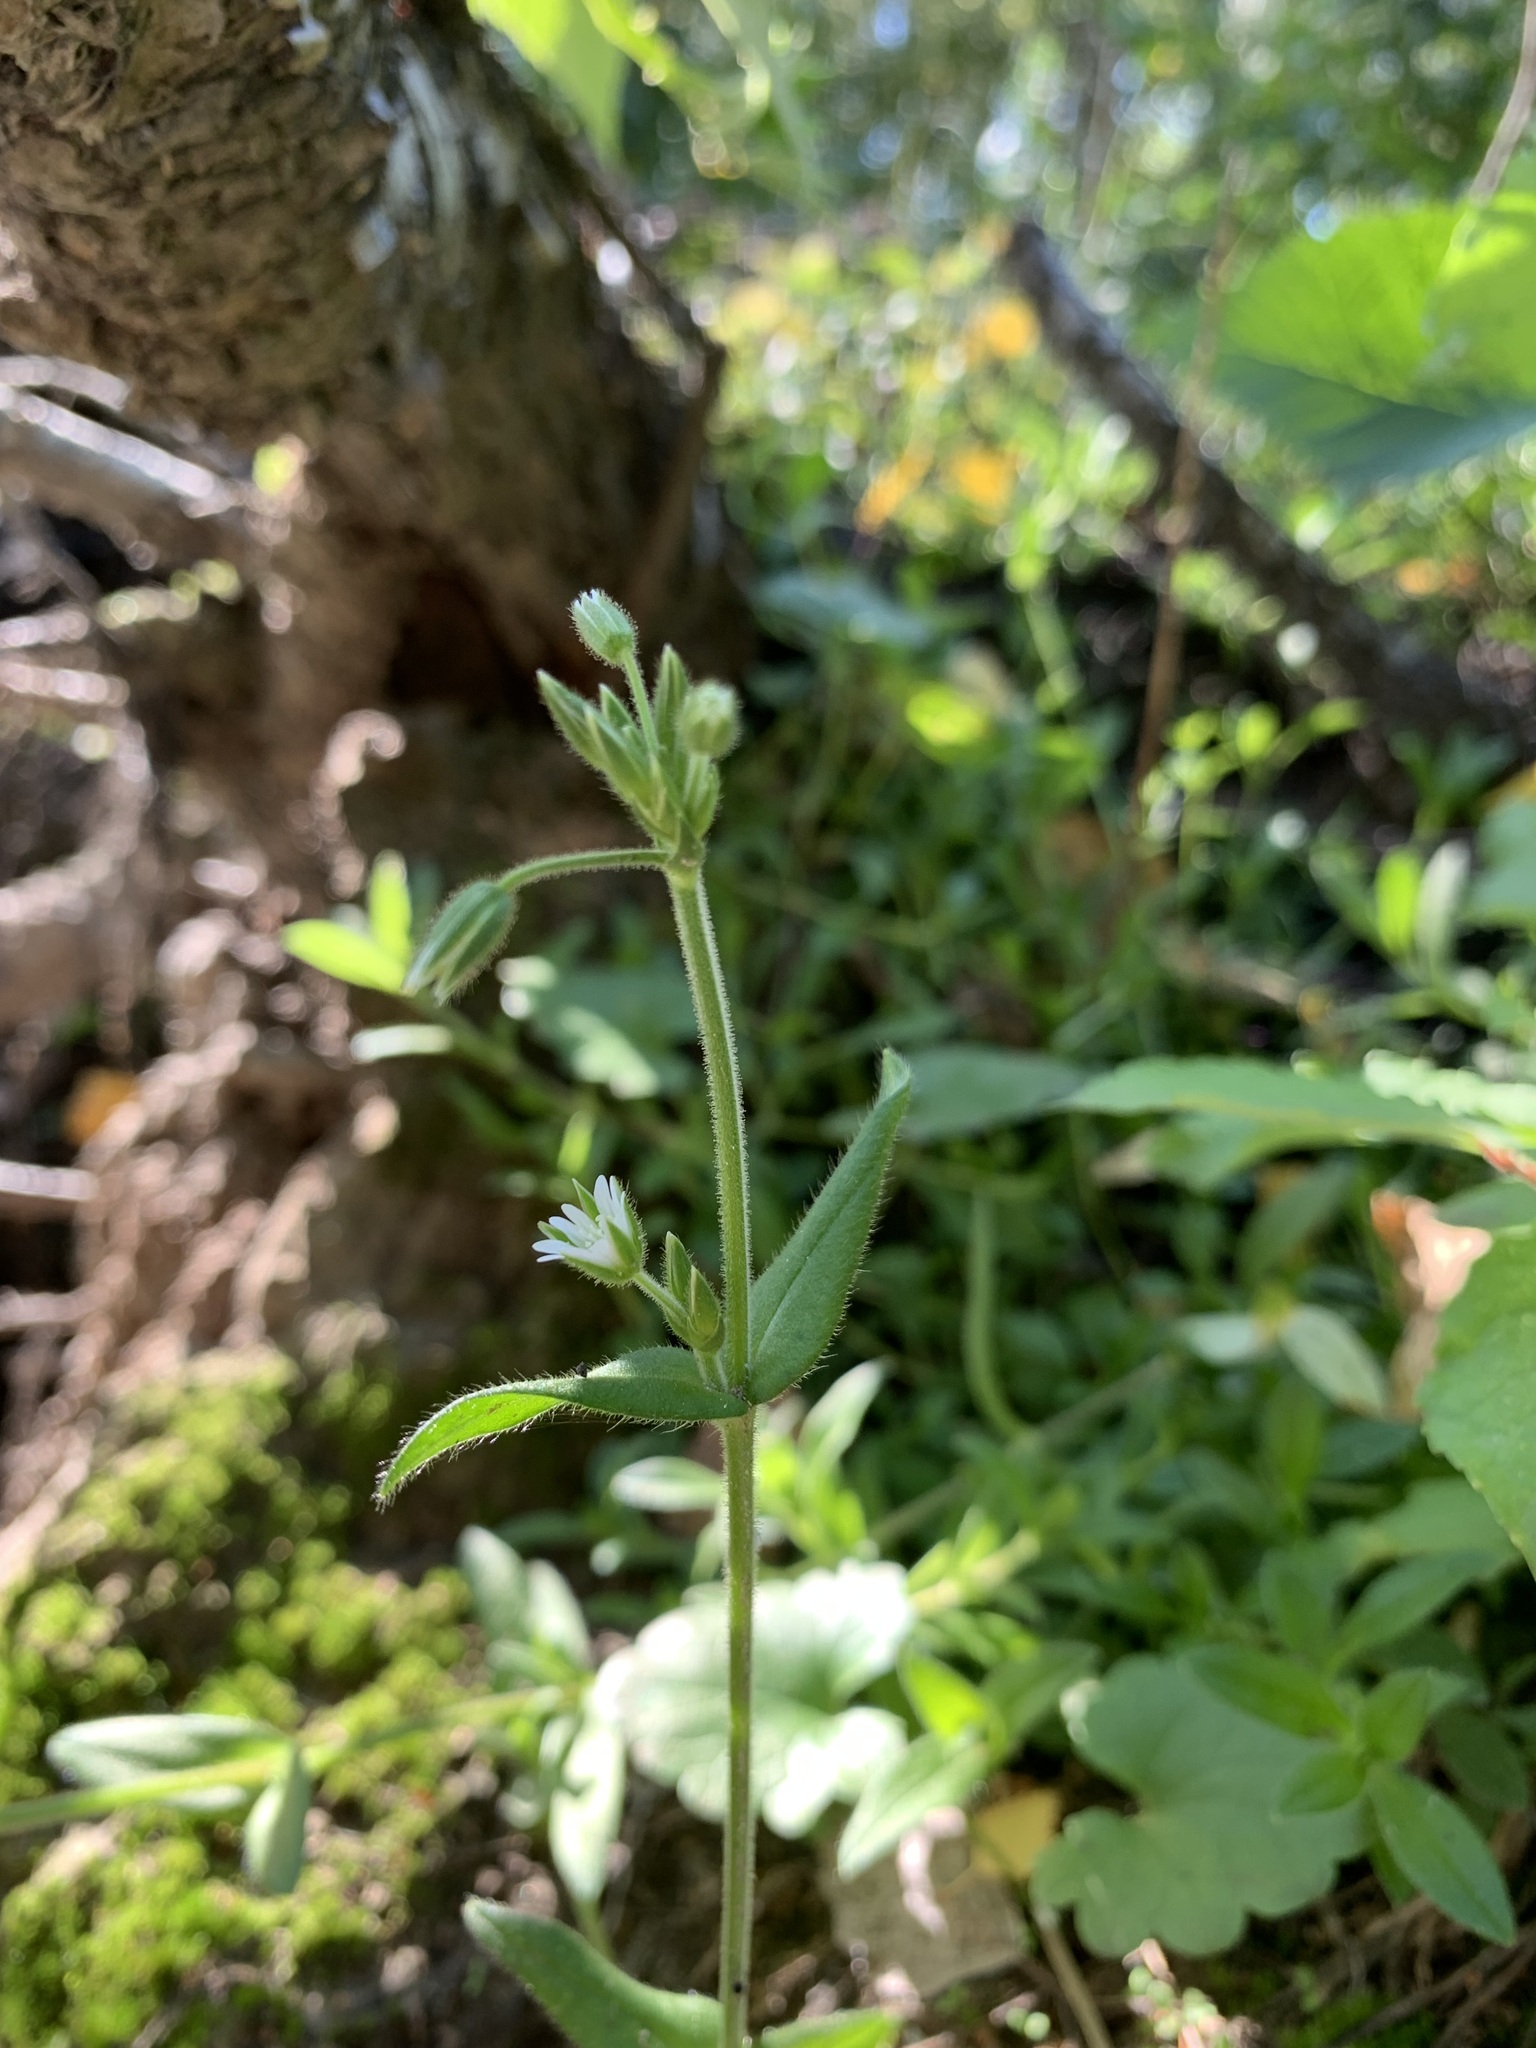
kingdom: Plantae
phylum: Tracheophyta
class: Magnoliopsida
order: Caryophyllales
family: Caryophyllaceae
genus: Cerastium
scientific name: Cerastium holosteoides
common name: Big chickweed
